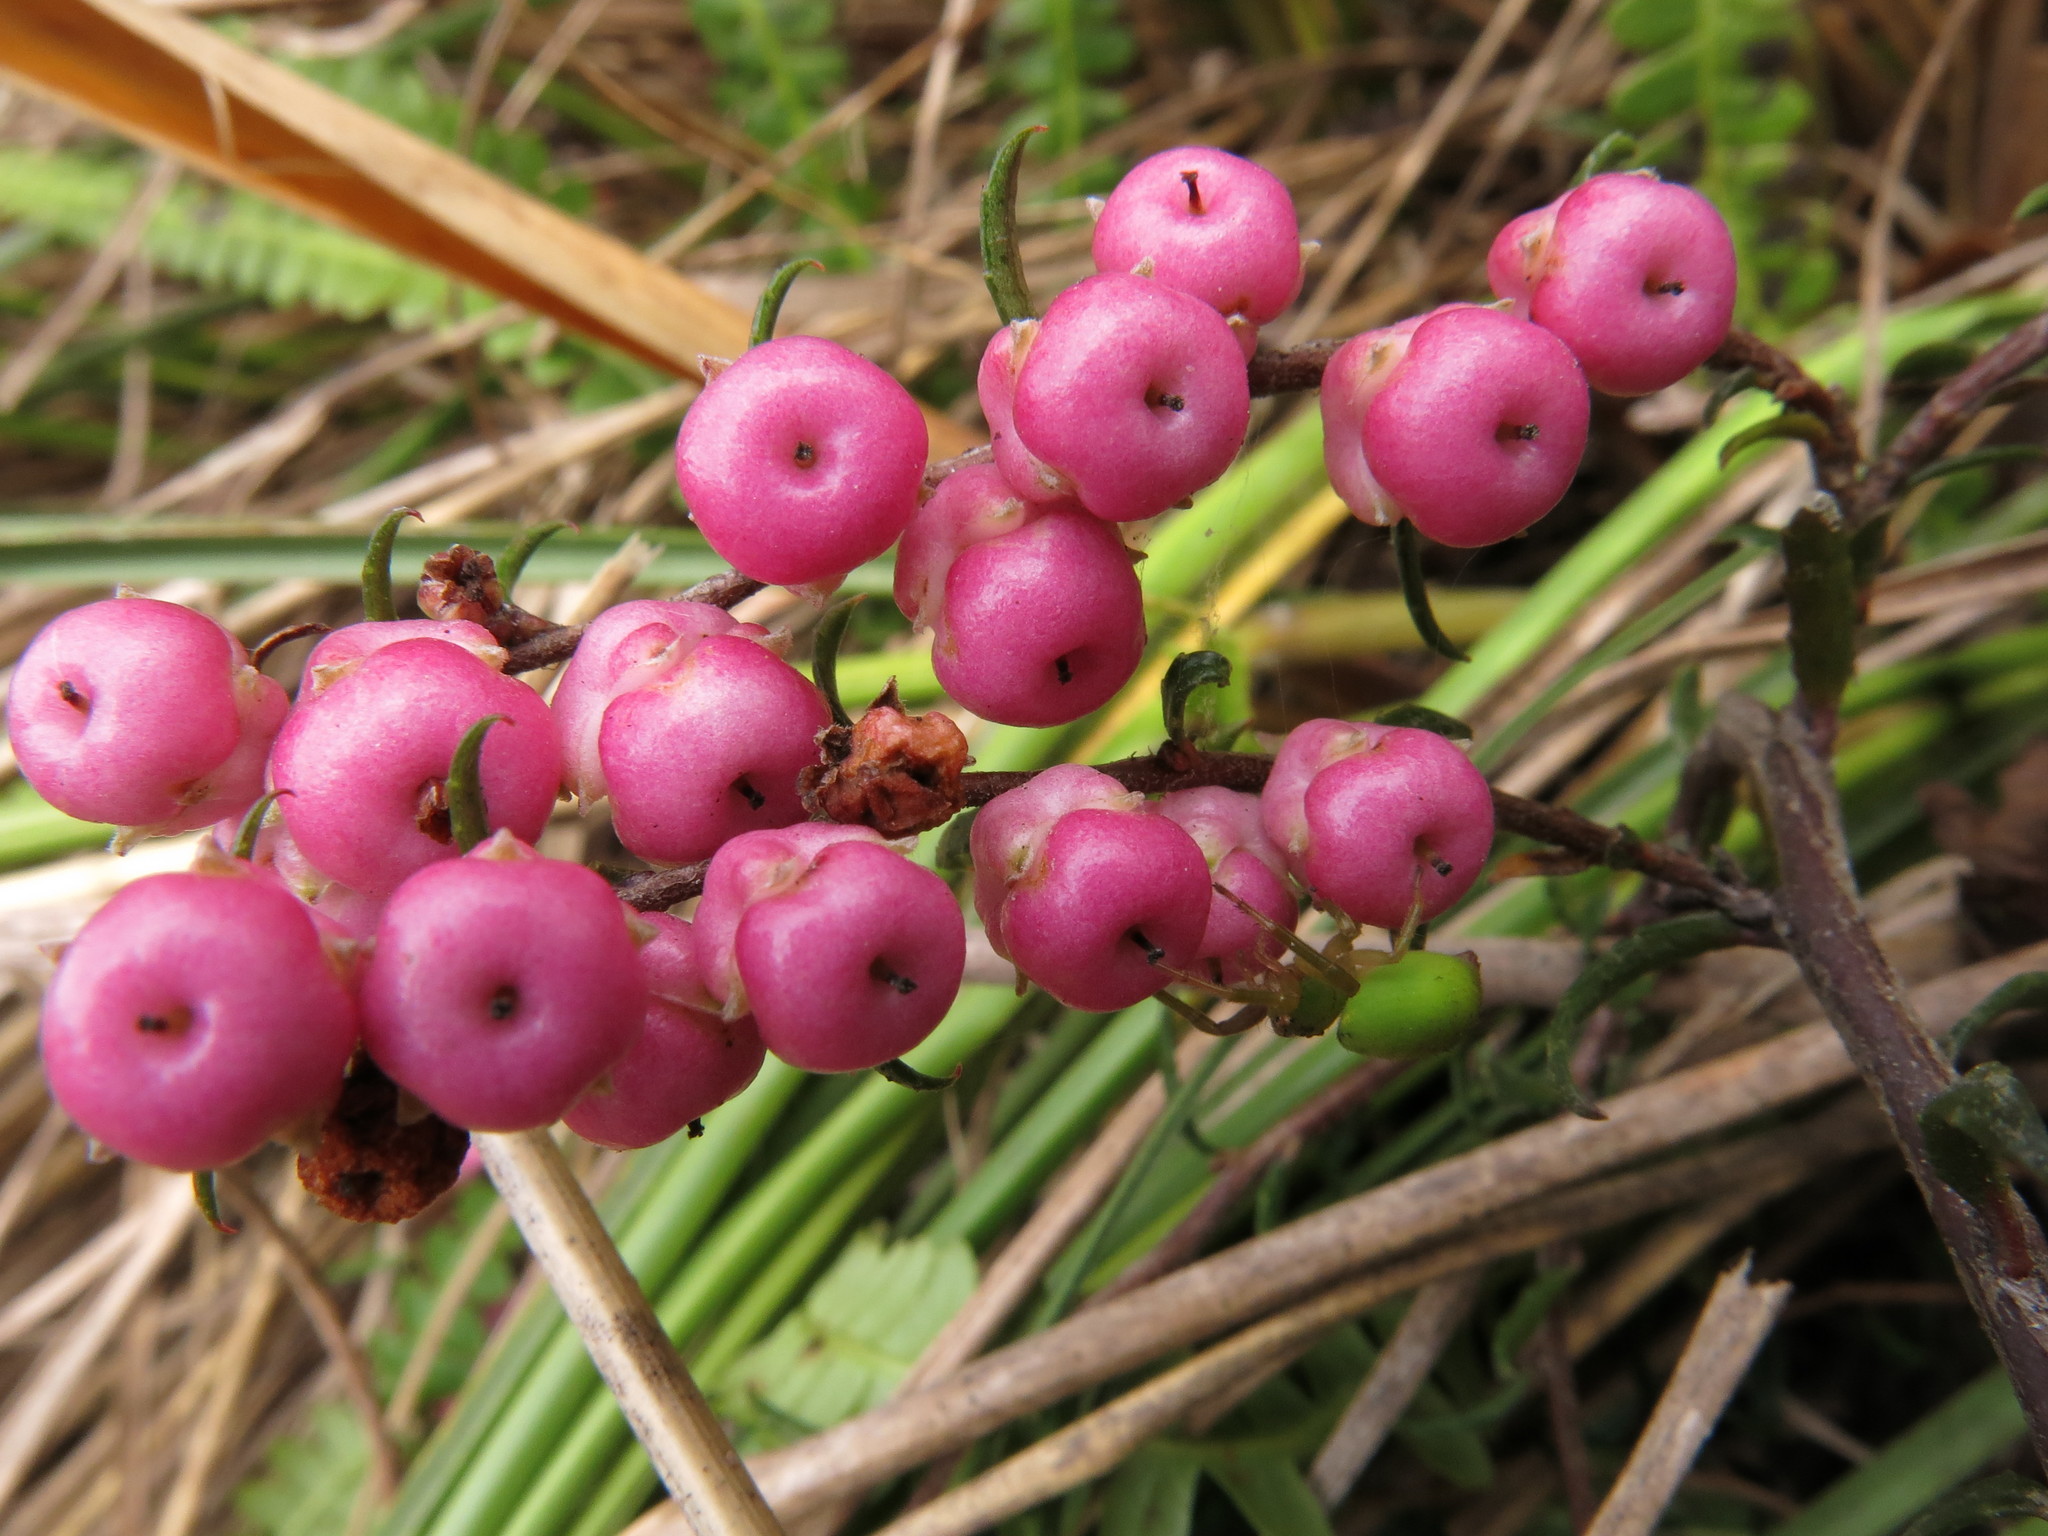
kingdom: Plantae
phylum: Tracheophyta
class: Magnoliopsida
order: Ericales
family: Ericaceae
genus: Gaultheria
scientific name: Gaultheria macrostigma
